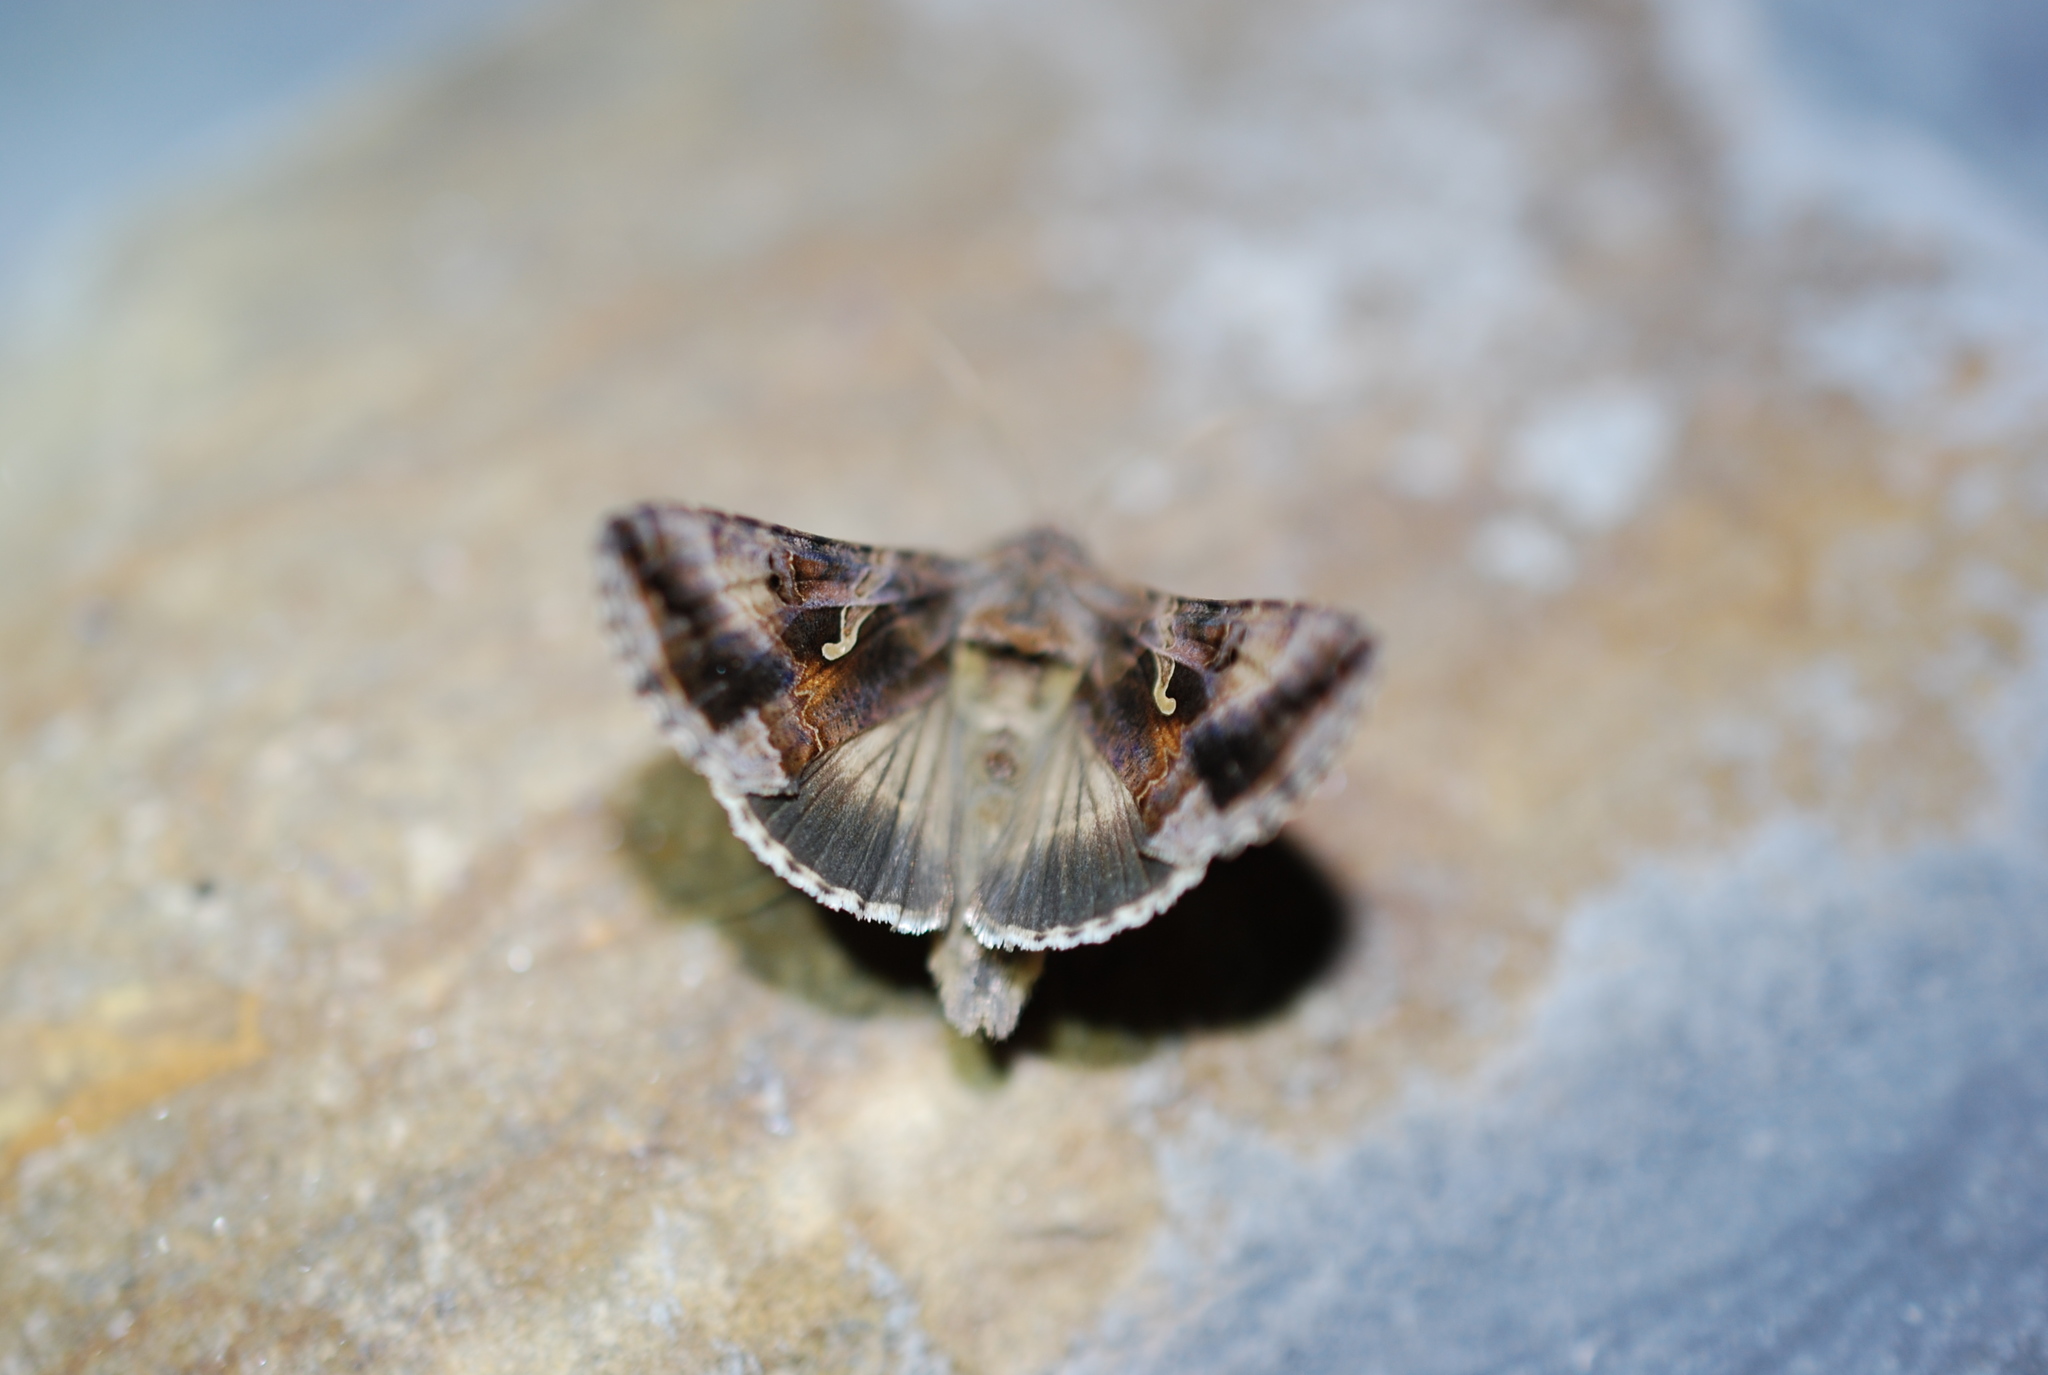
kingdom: Animalia
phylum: Arthropoda
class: Insecta
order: Lepidoptera
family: Noctuidae
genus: Autographa
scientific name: Autographa gamma
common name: Silver y
